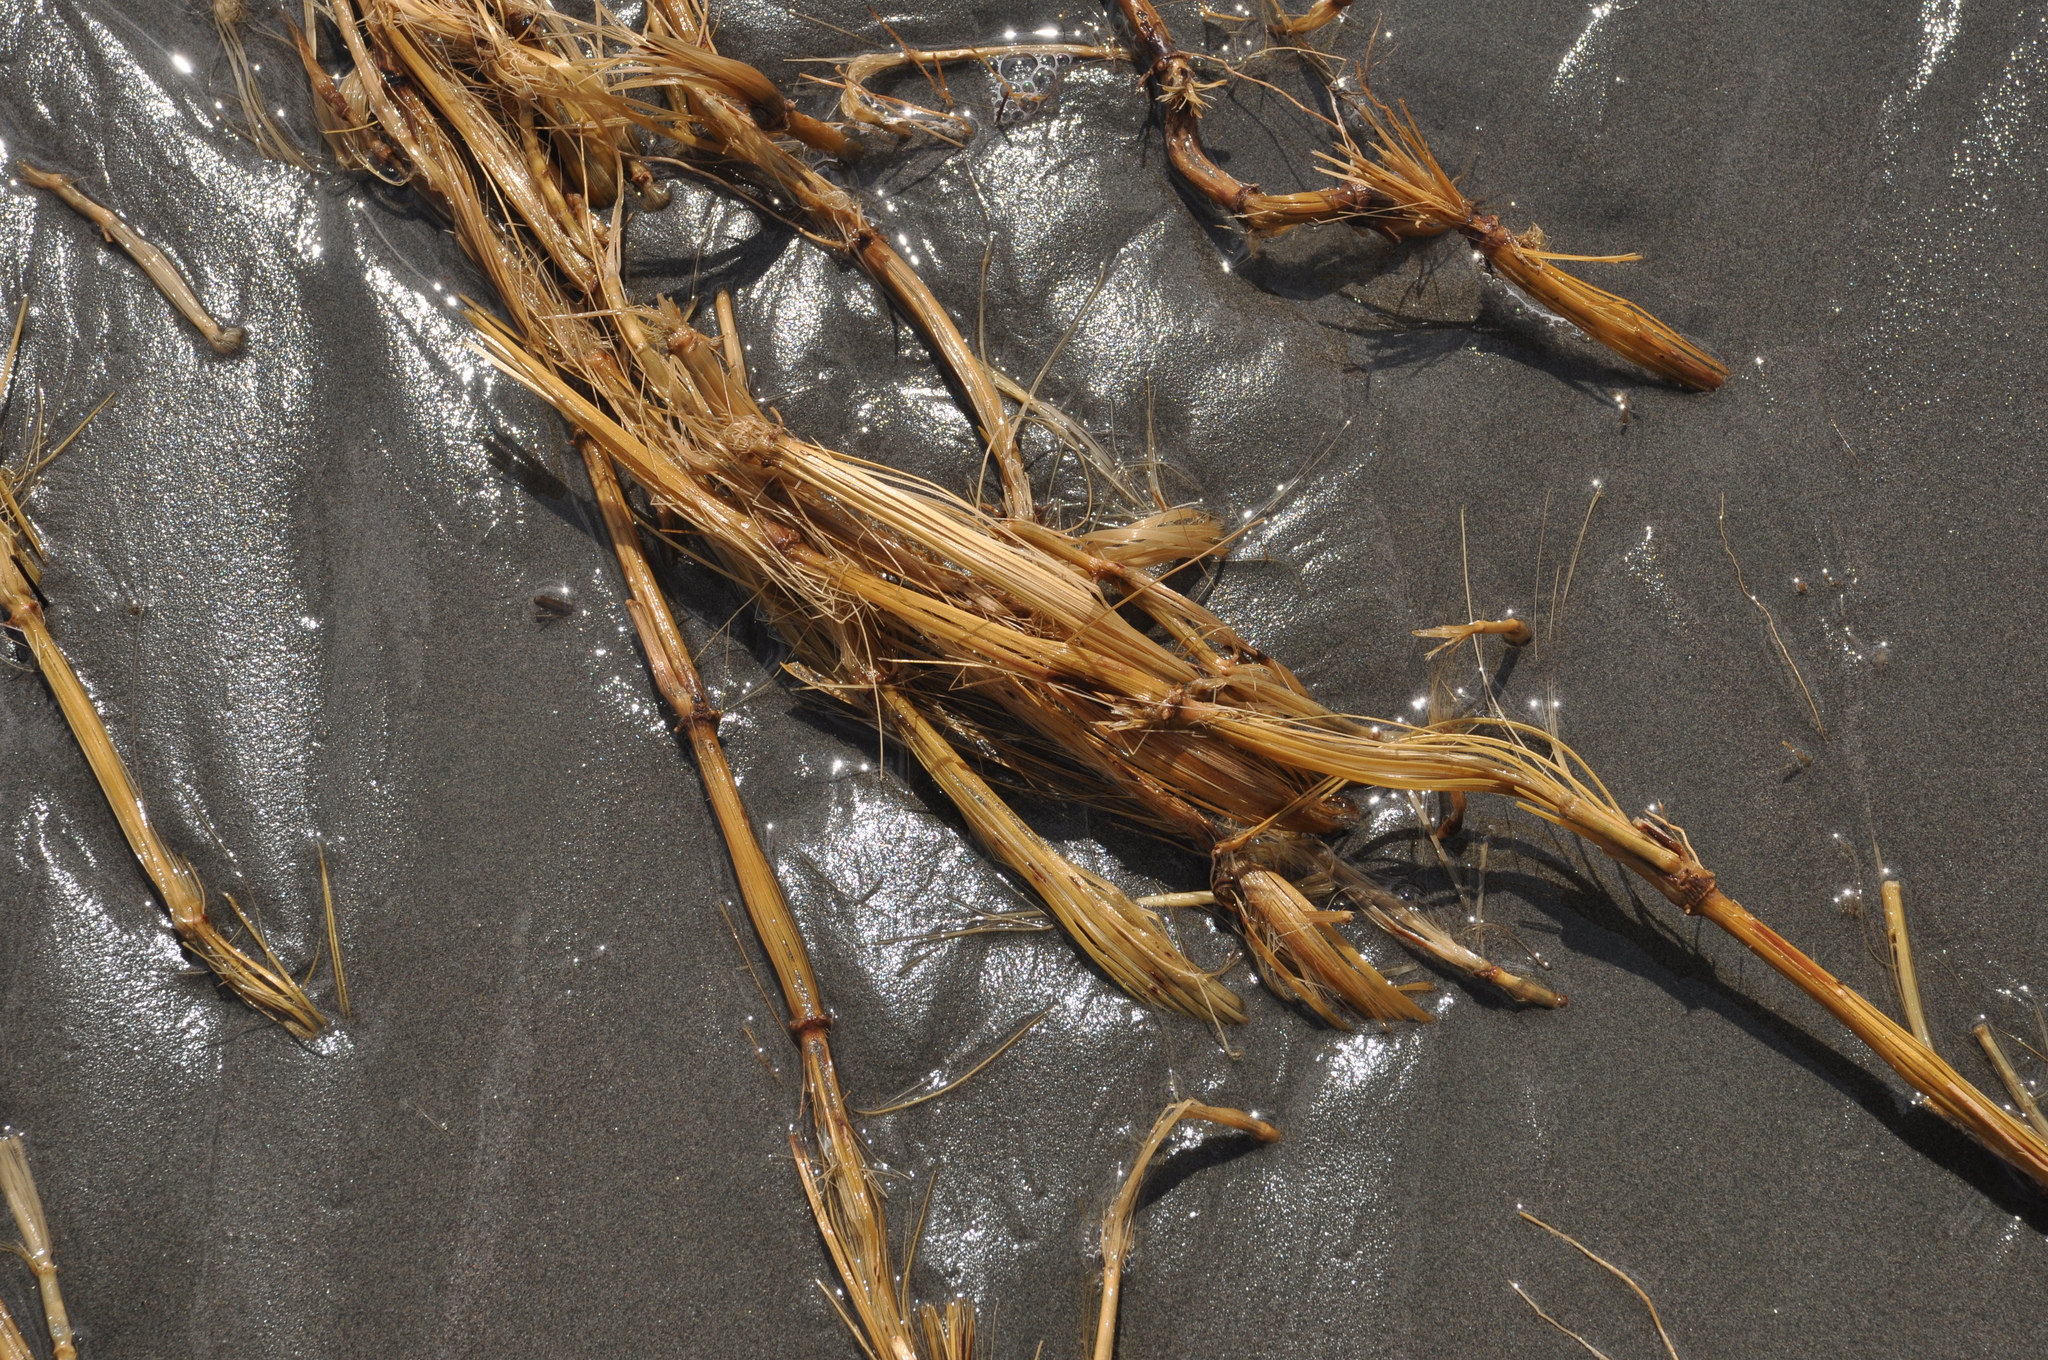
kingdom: Plantae
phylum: Tracheophyta
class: Liliopsida
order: Poales
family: Cyperaceae
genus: Ficinia
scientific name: Ficinia spiralis
